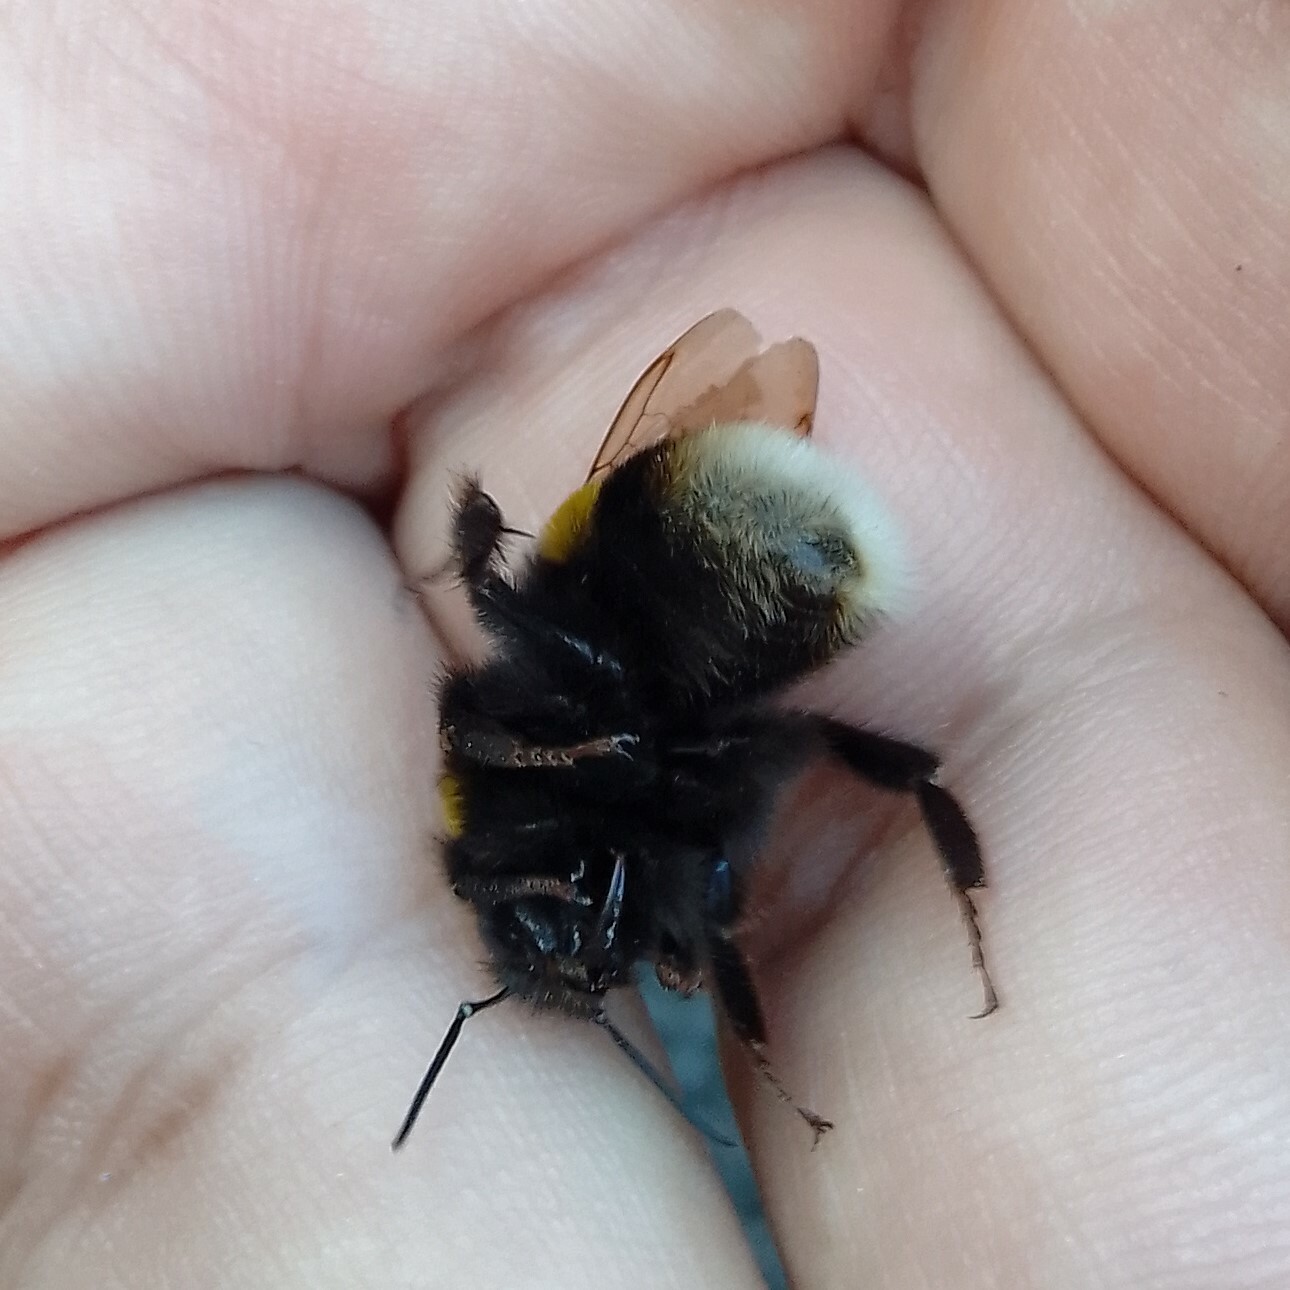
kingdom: Animalia
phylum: Arthropoda
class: Insecta
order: Hymenoptera
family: Apidae
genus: Bombus
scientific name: Bombus terrestris
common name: Buff-tailed bumblebee
